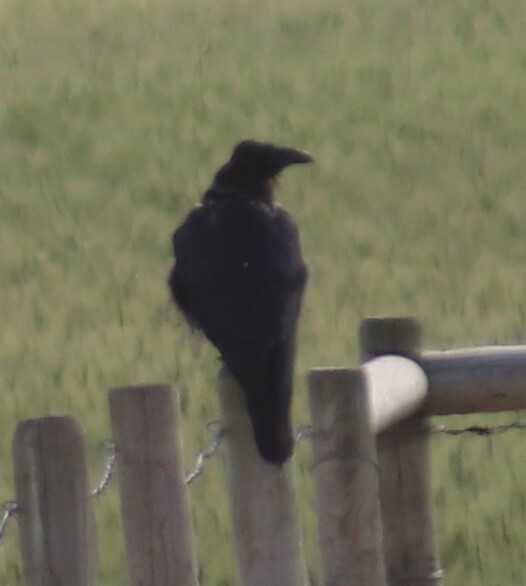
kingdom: Animalia
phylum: Chordata
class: Aves
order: Passeriformes
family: Corvidae
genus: Corvus
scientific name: Corvus corax
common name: Common raven
